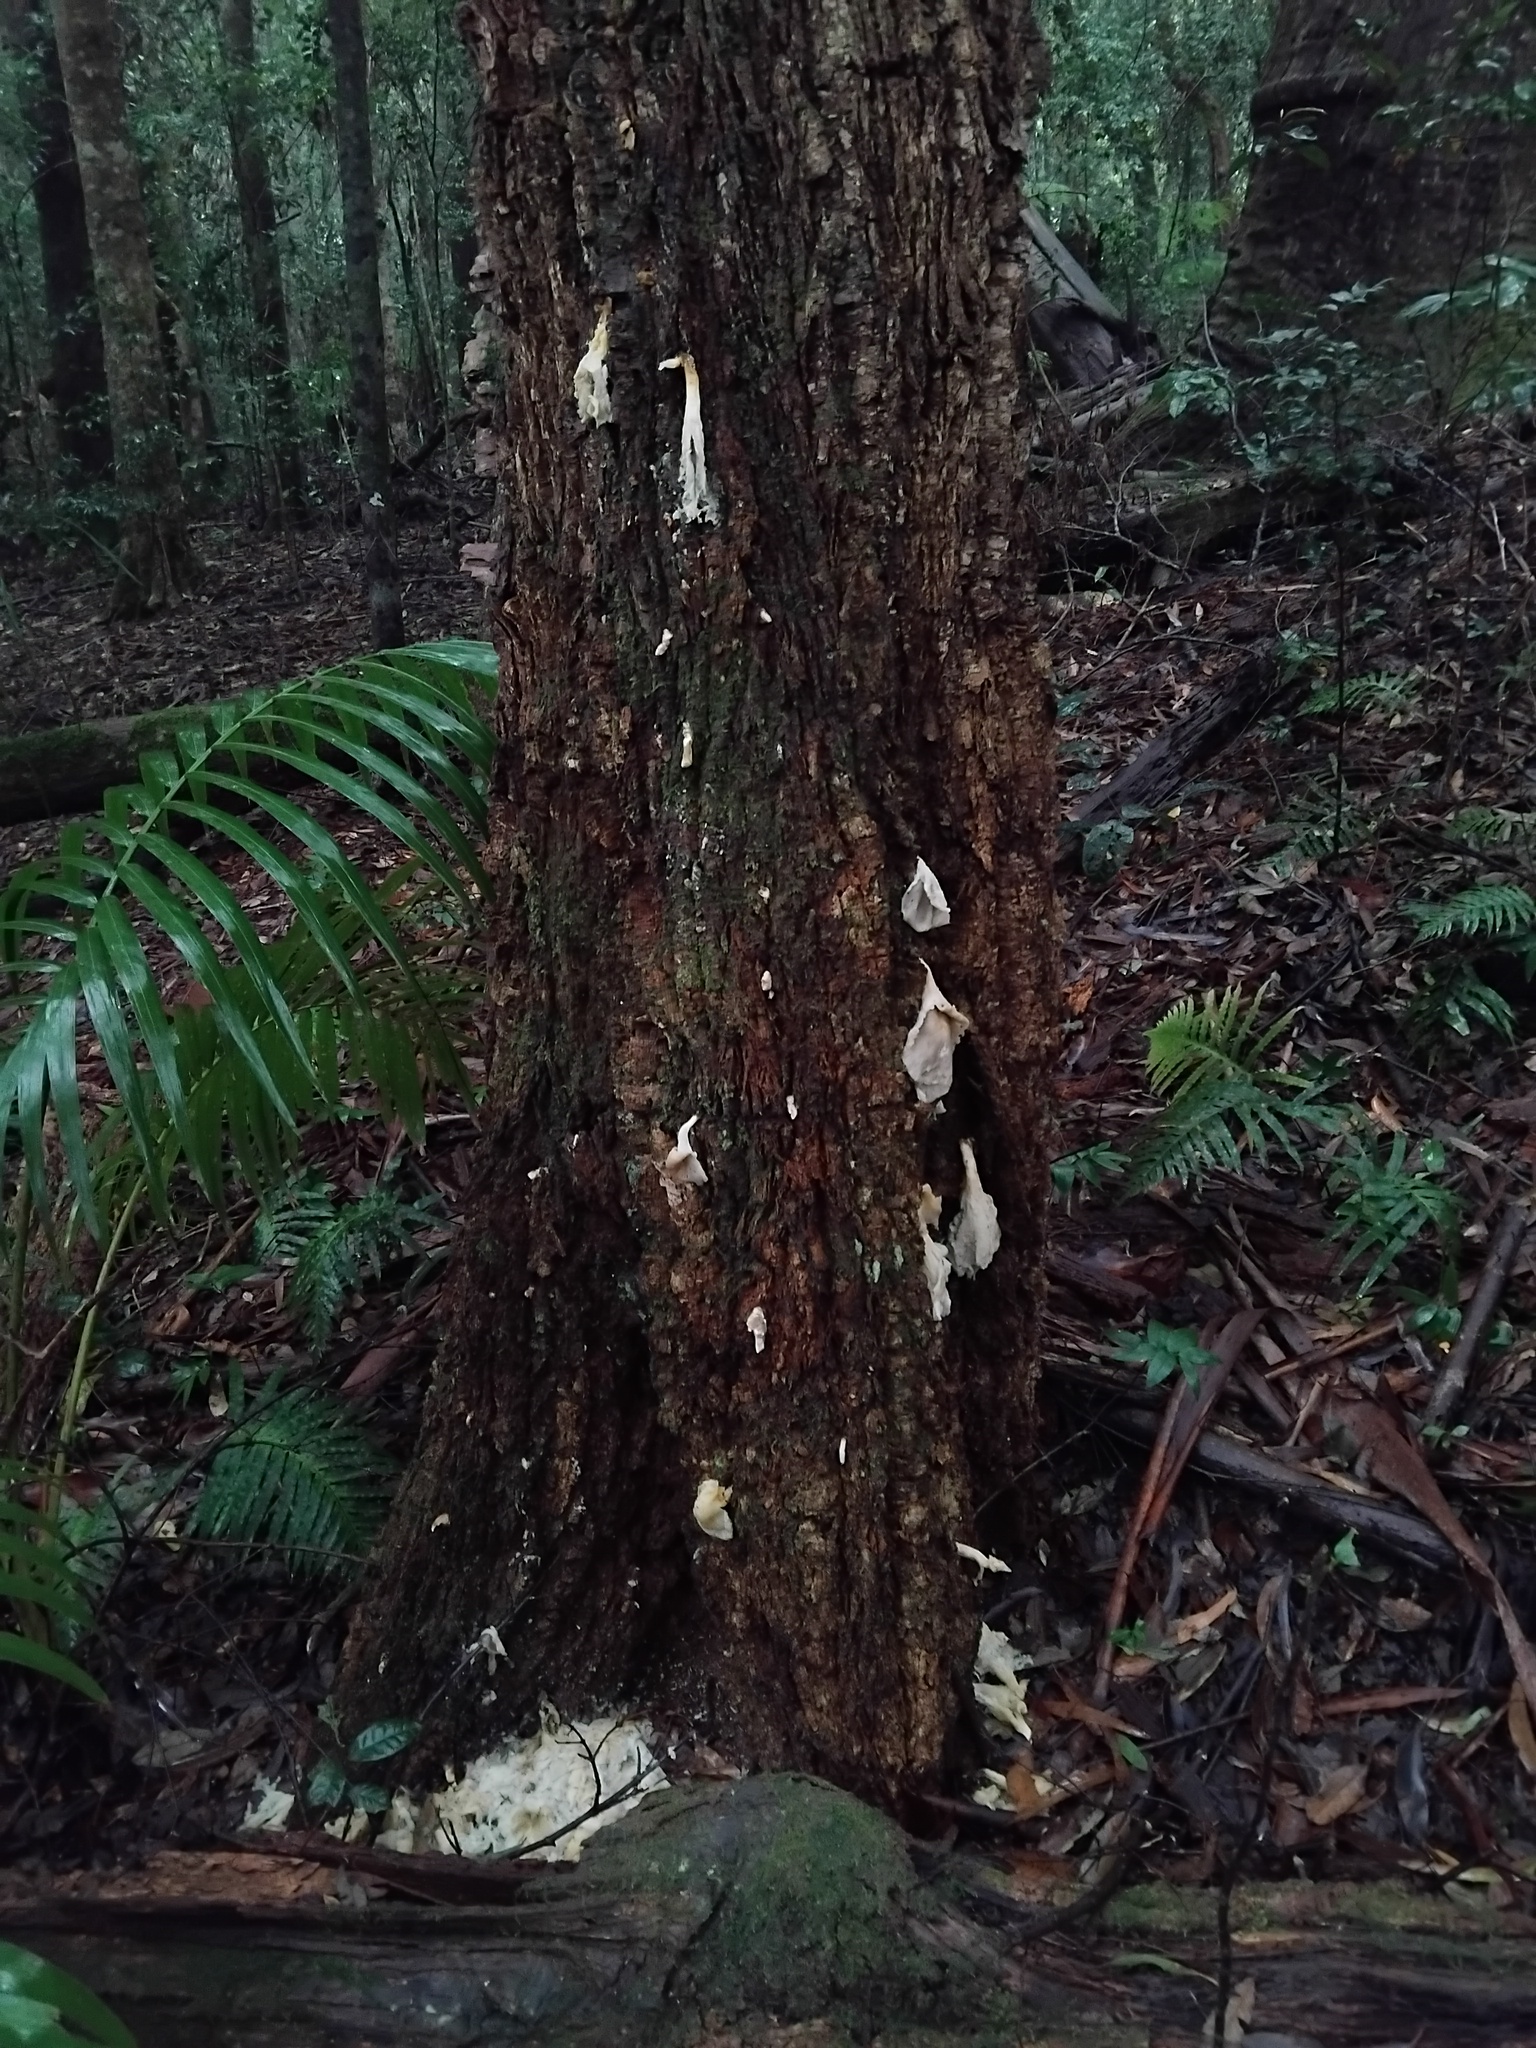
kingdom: Fungi
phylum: Basidiomycota
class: Agaricomycetes
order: Agaricales
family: Omphalotaceae
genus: Omphalotus
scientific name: Omphalotus nidiformis
